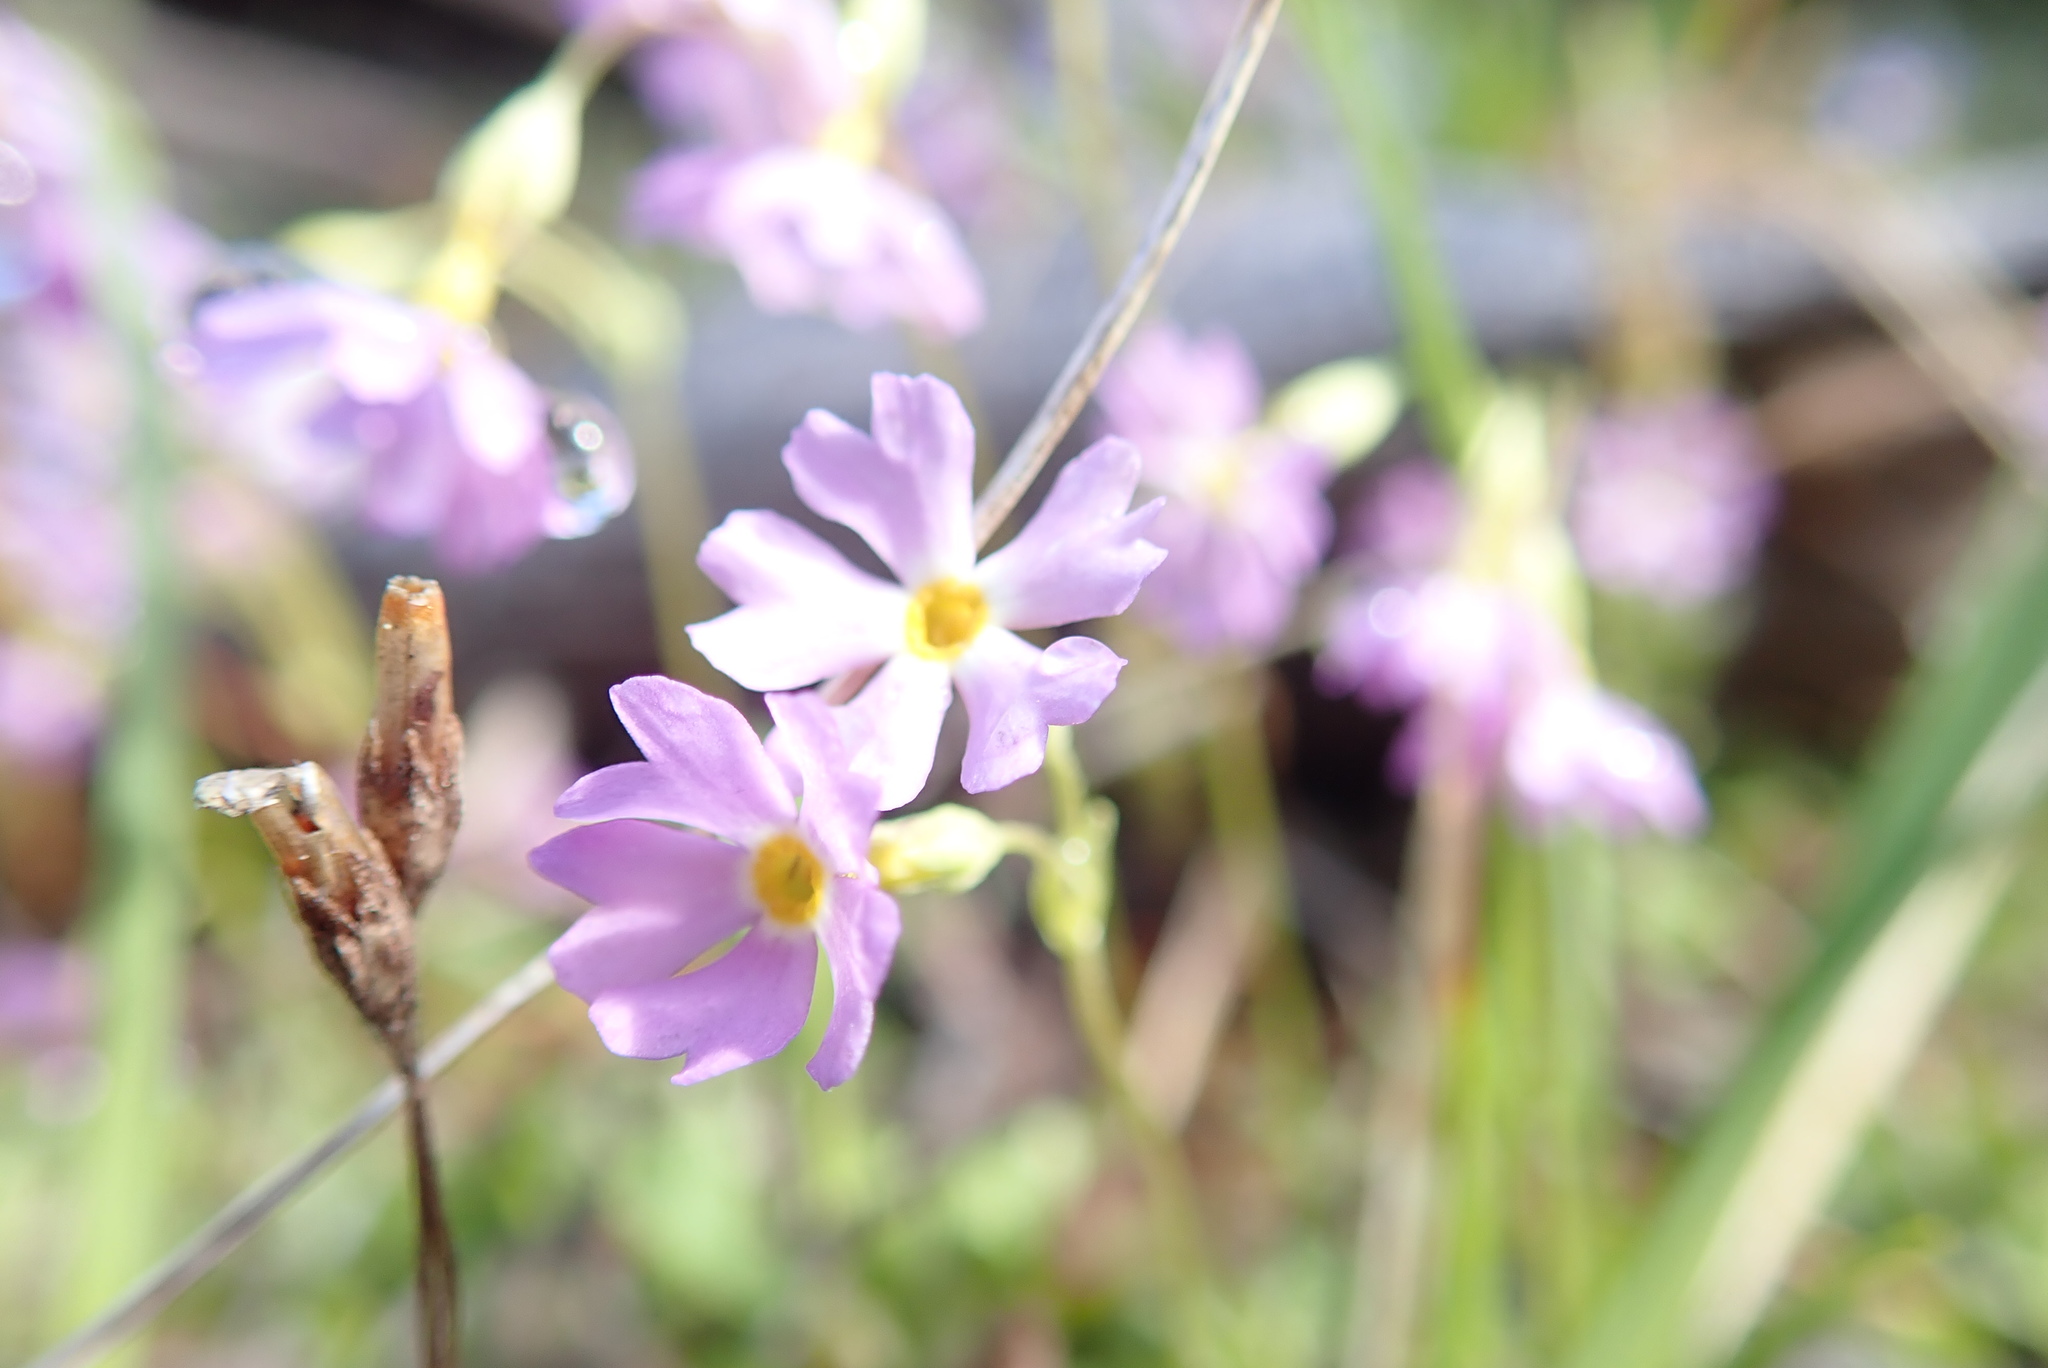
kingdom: Plantae
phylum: Tracheophyta
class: Magnoliopsida
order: Ericales
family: Primulaceae
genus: Primula
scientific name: Primula mistassinica
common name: Bird's-eye primrose
